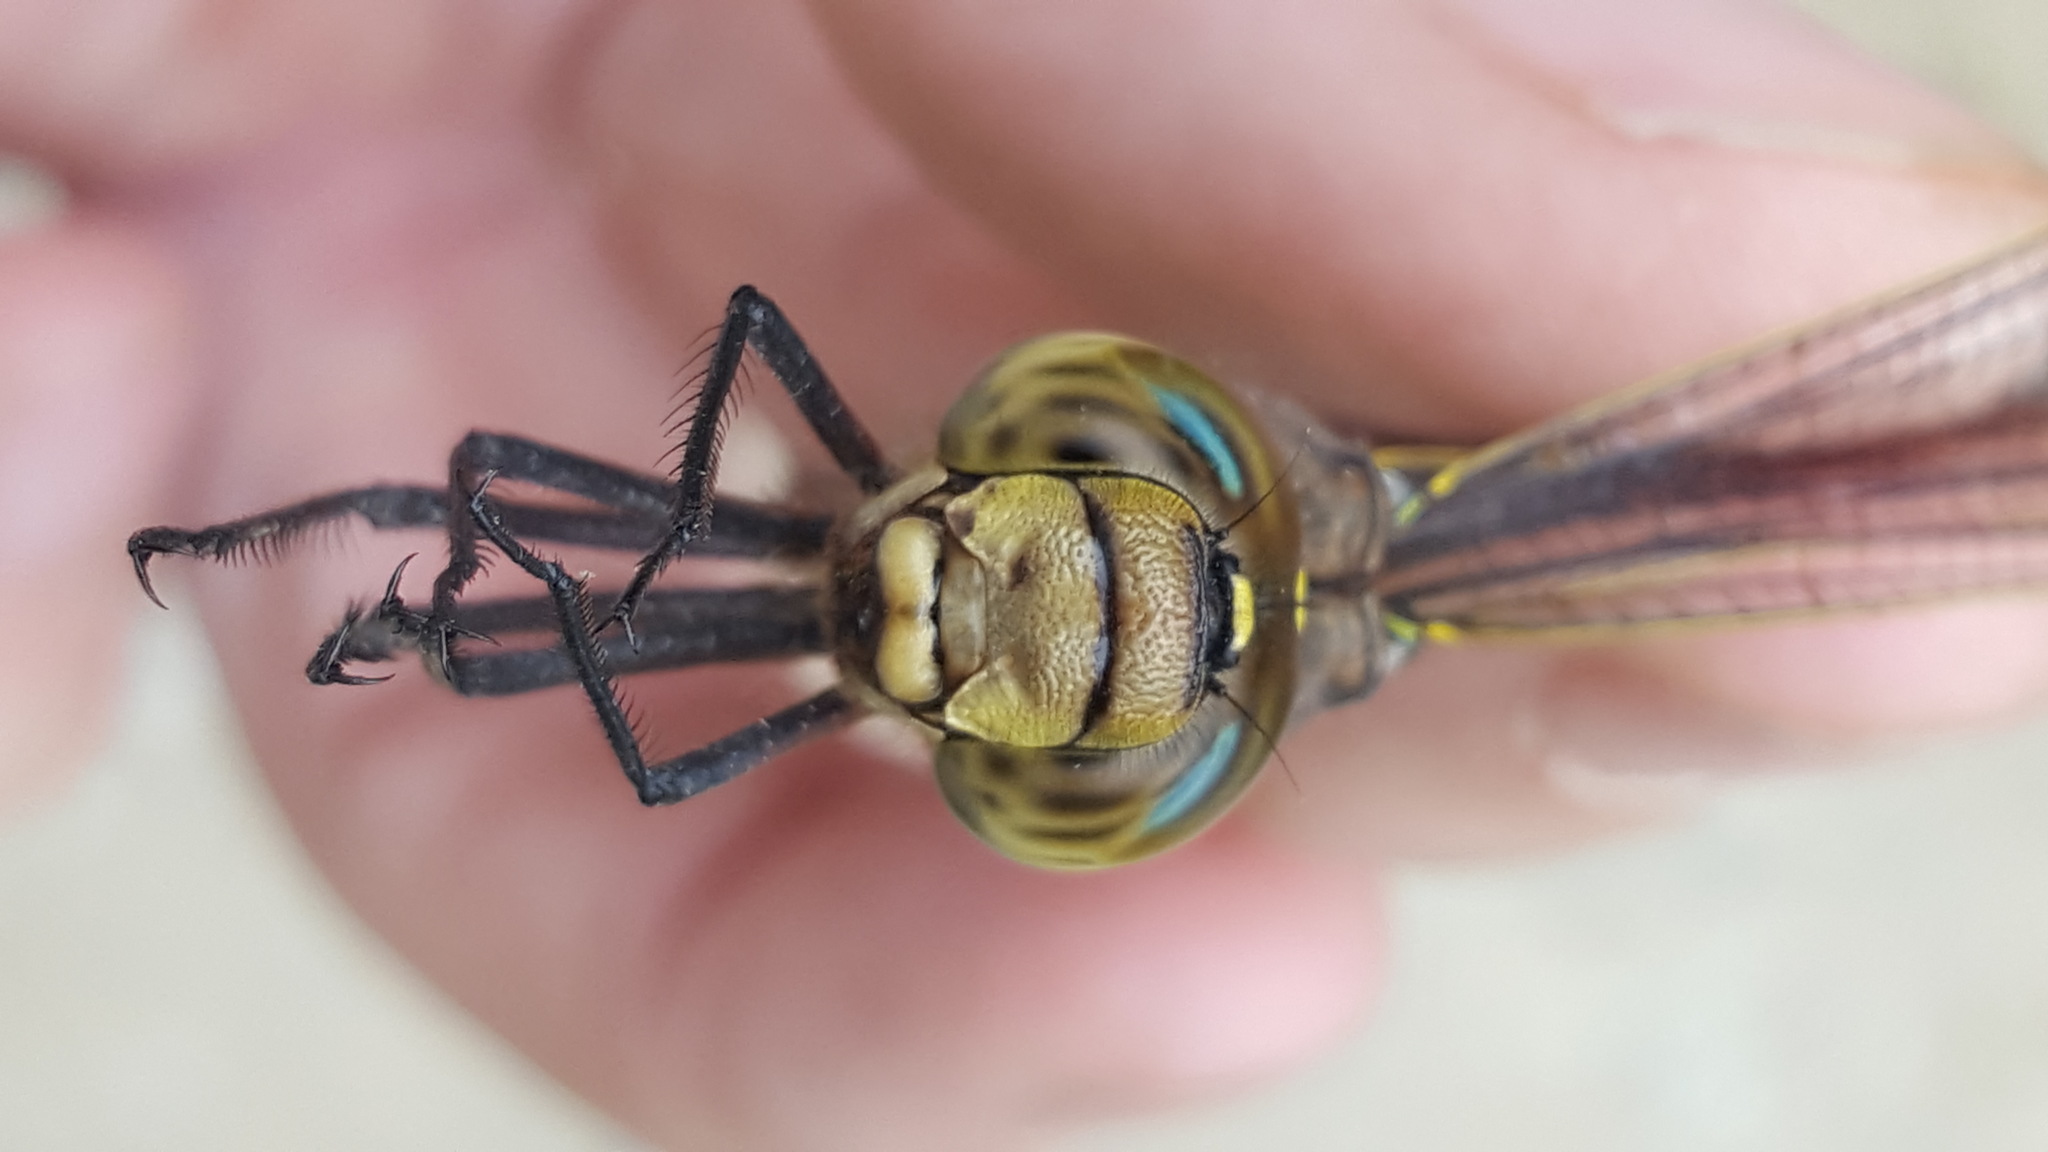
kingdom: Animalia
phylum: Arthropoda
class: Insecta
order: Odonata
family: Aeshnidae
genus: Aeshna
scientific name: Aeshna interrupta
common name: Variable darner
